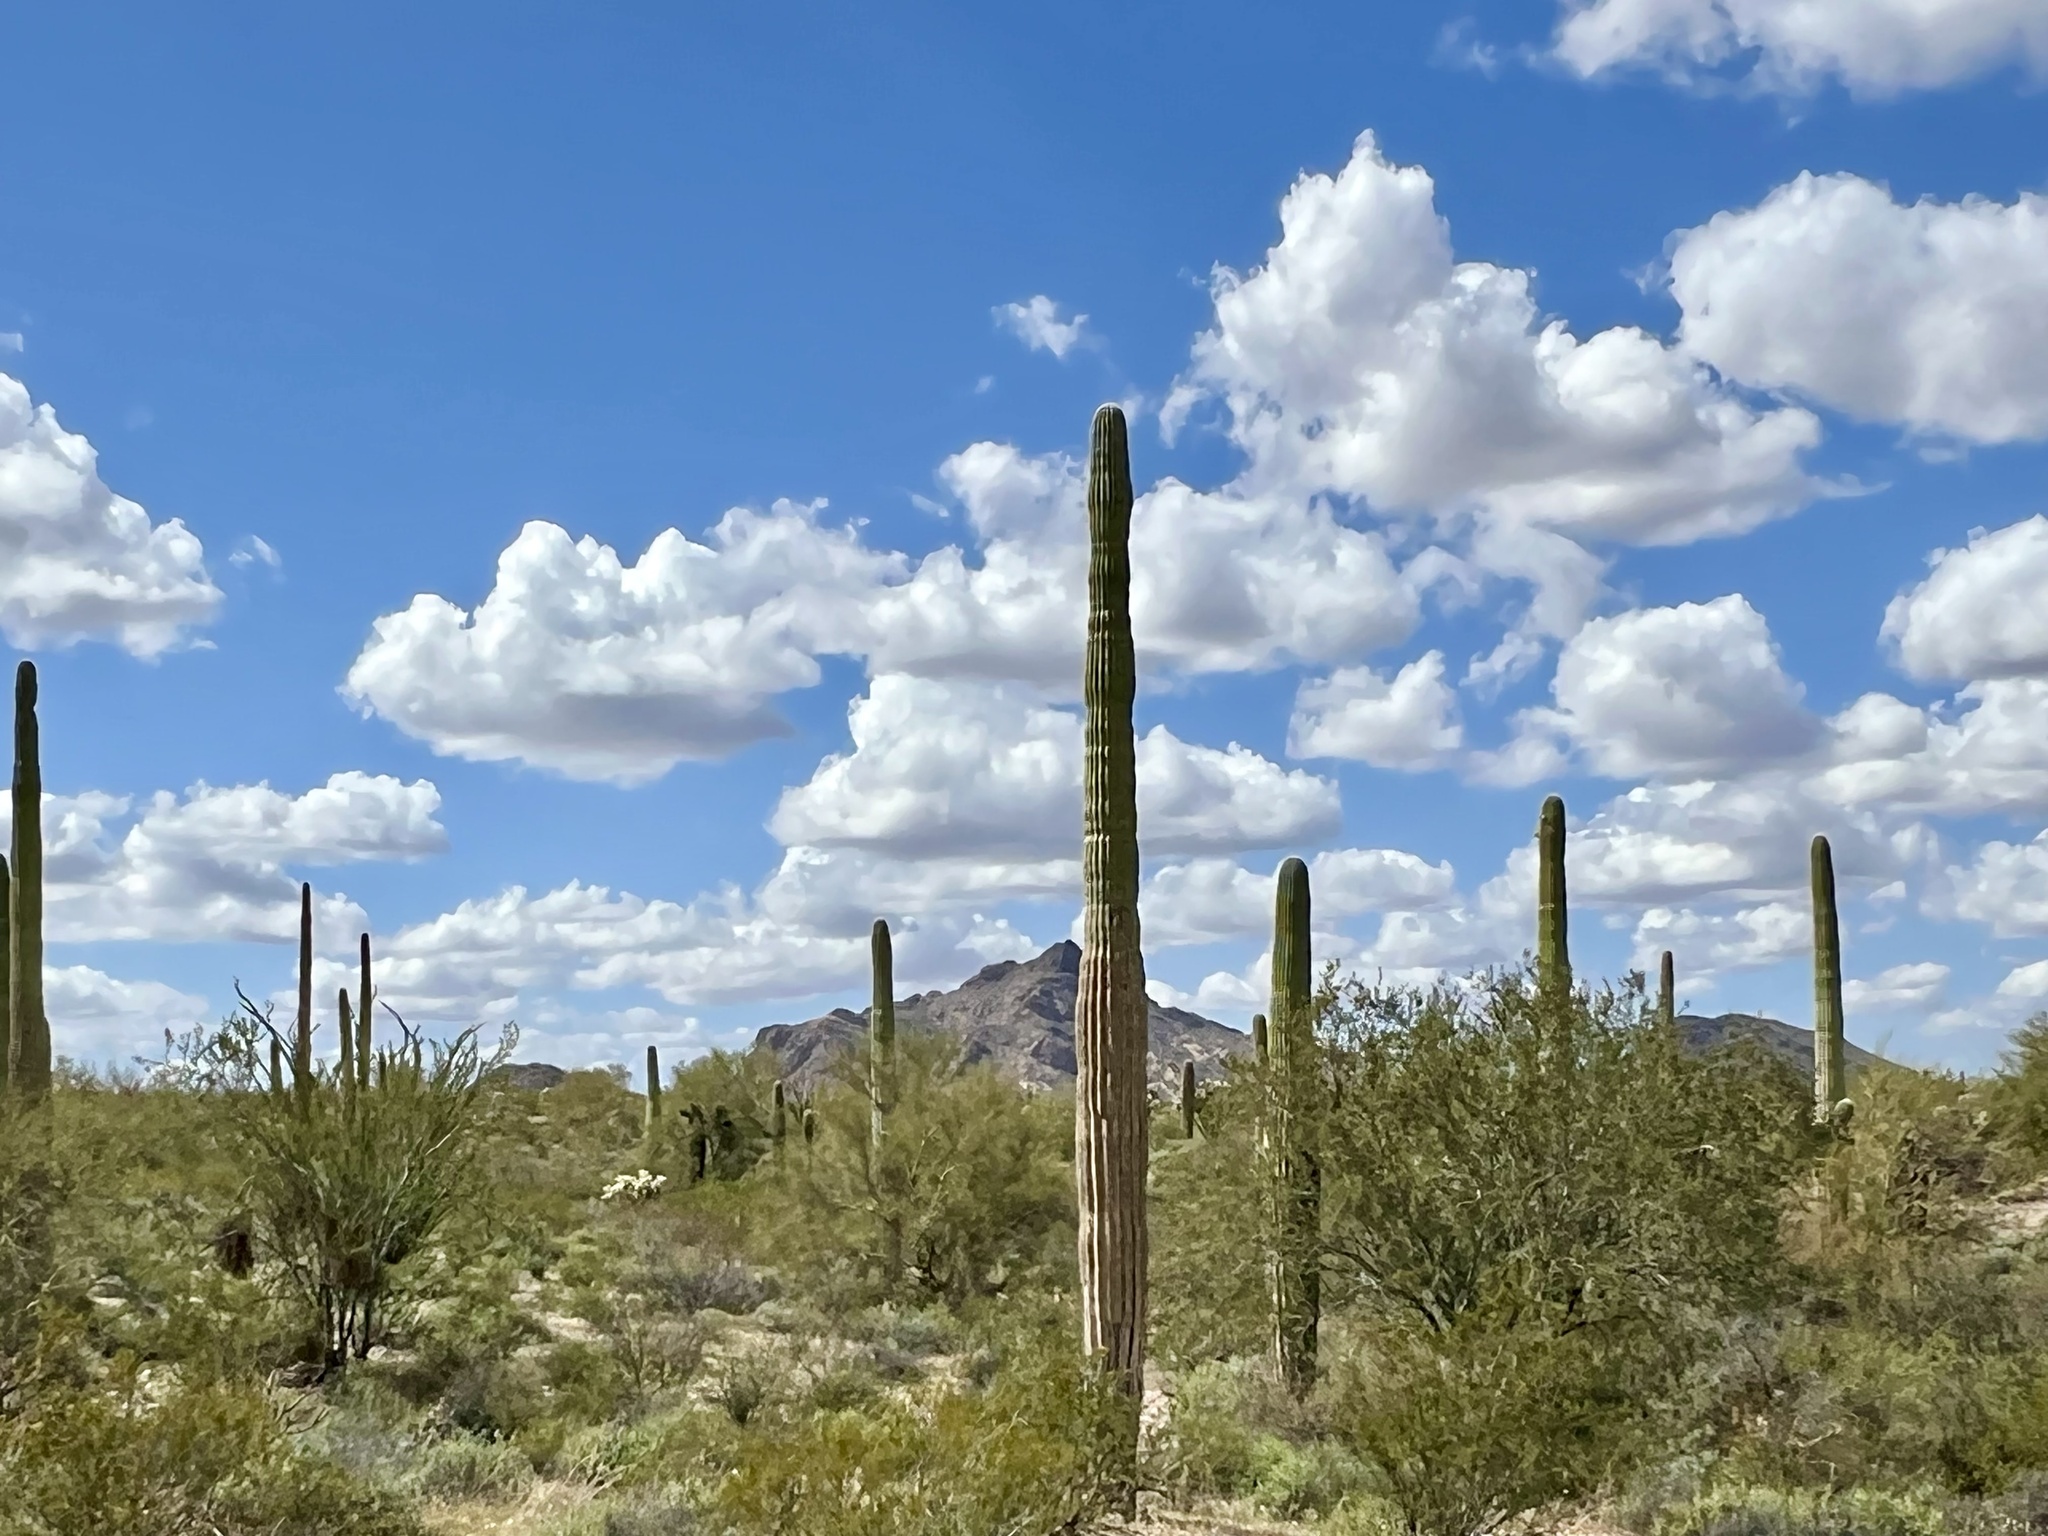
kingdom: Plantae
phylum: Tracheophyta
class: Magnoliopsida
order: Caryophyllales
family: Cactaceae
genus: Carnegiea
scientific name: Carnegiea gigantea
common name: Saguaro
